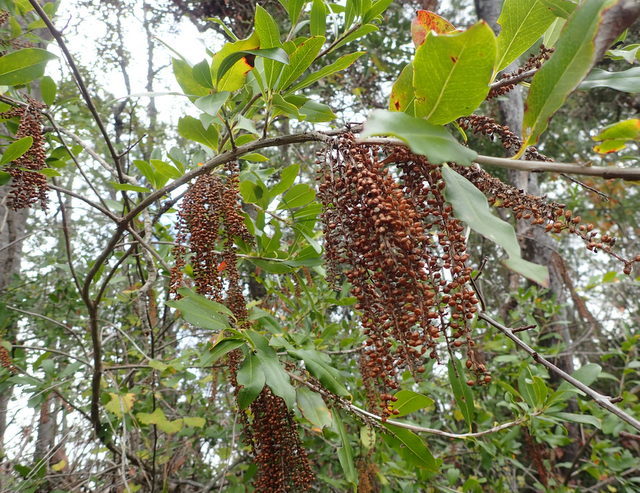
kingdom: Plantae
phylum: Tracheophyta
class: Magnoliopsida
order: Ericales
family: Cyrillaceae
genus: Cyrilla
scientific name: Cyrilla racemiflora
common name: Black titi
